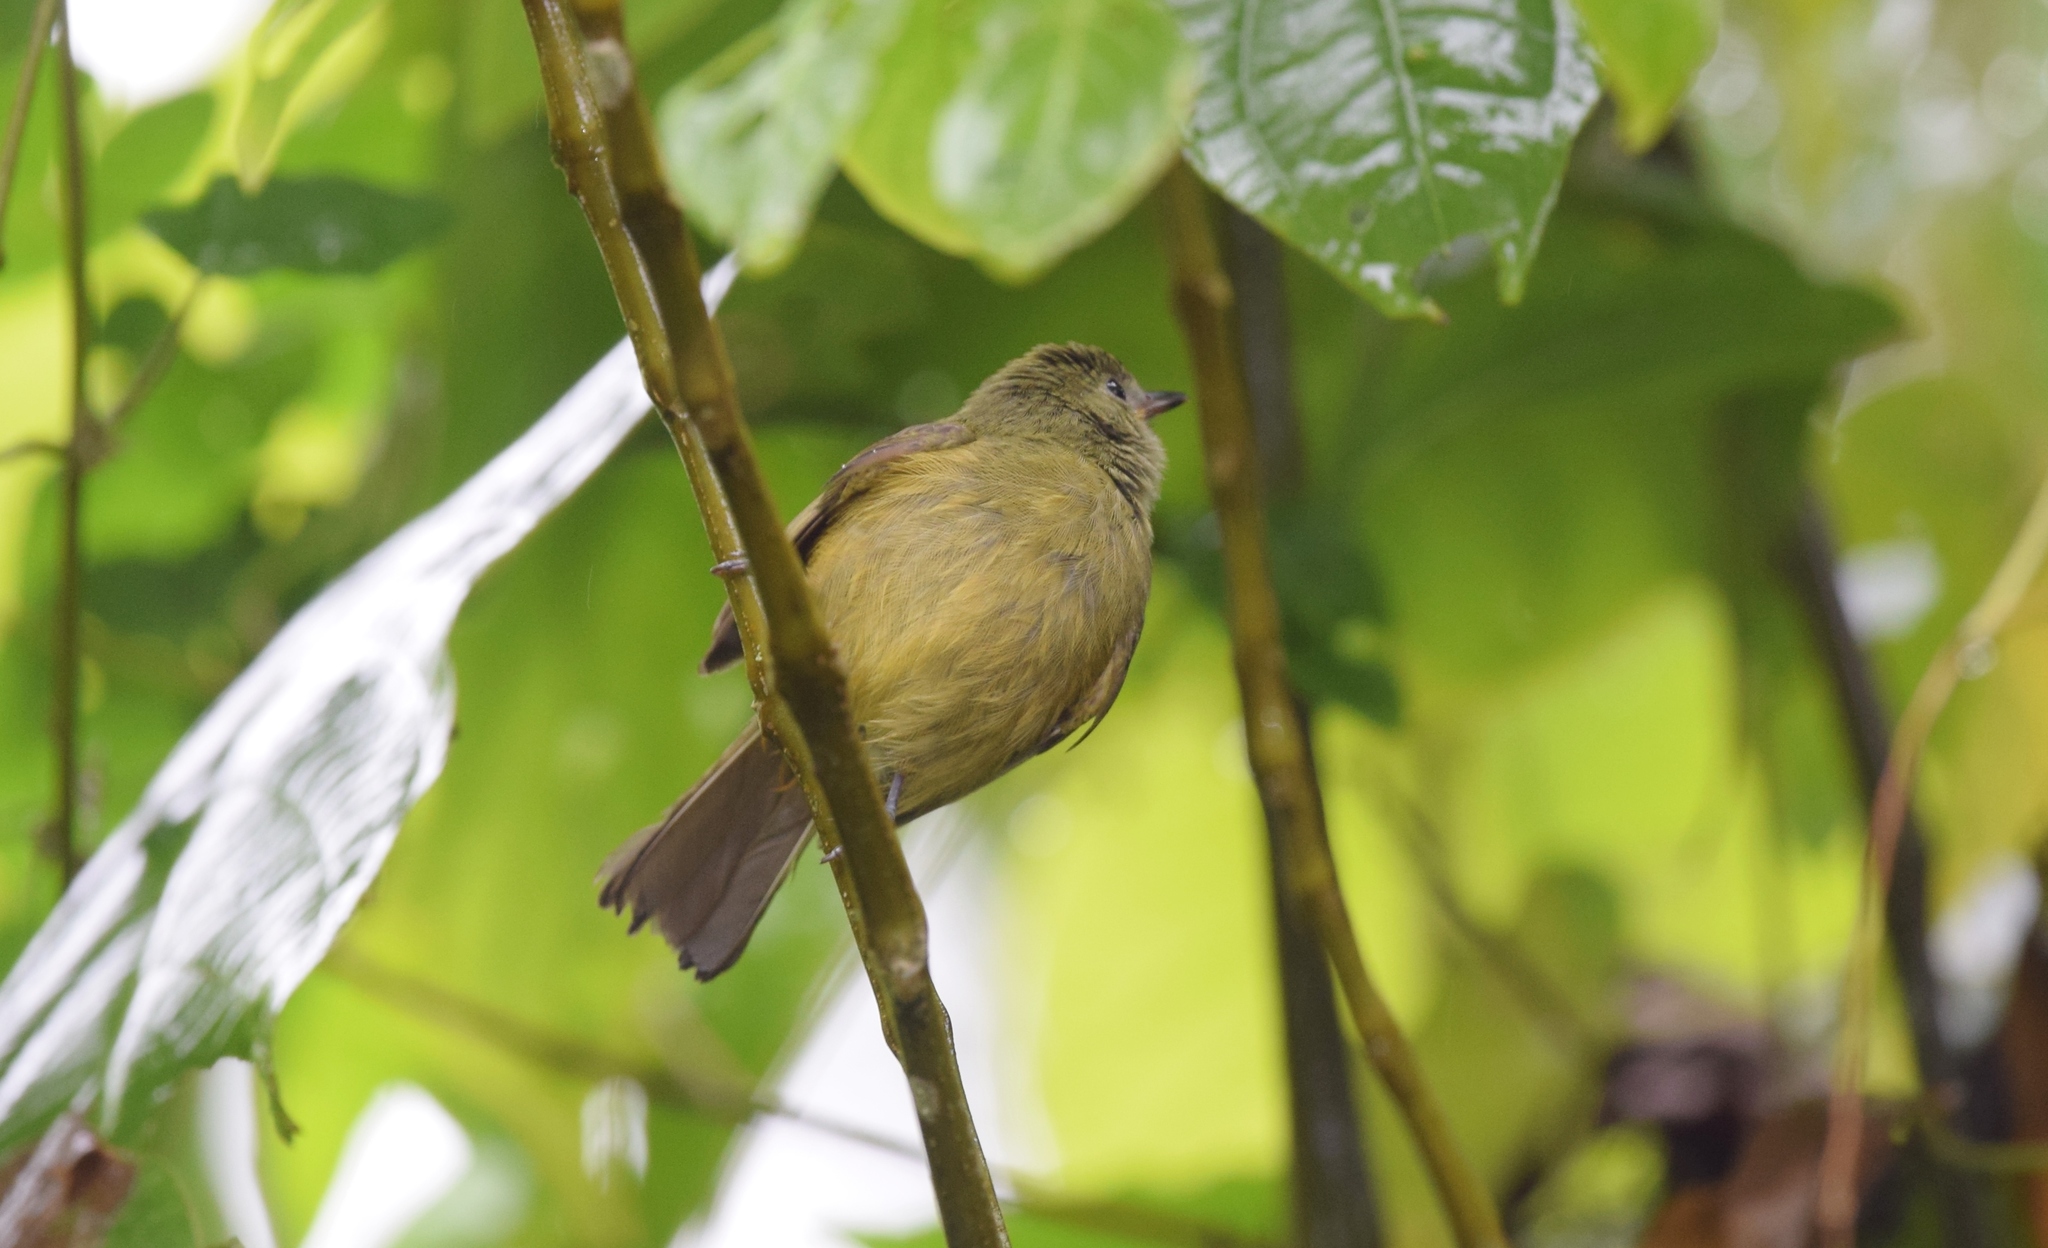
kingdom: Animalia
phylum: Chordata
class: Aves
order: Passeriformes
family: Tyrannidae
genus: Mionectes
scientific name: Mionectes oleagineus
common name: Ochre-bellied flycatcher
